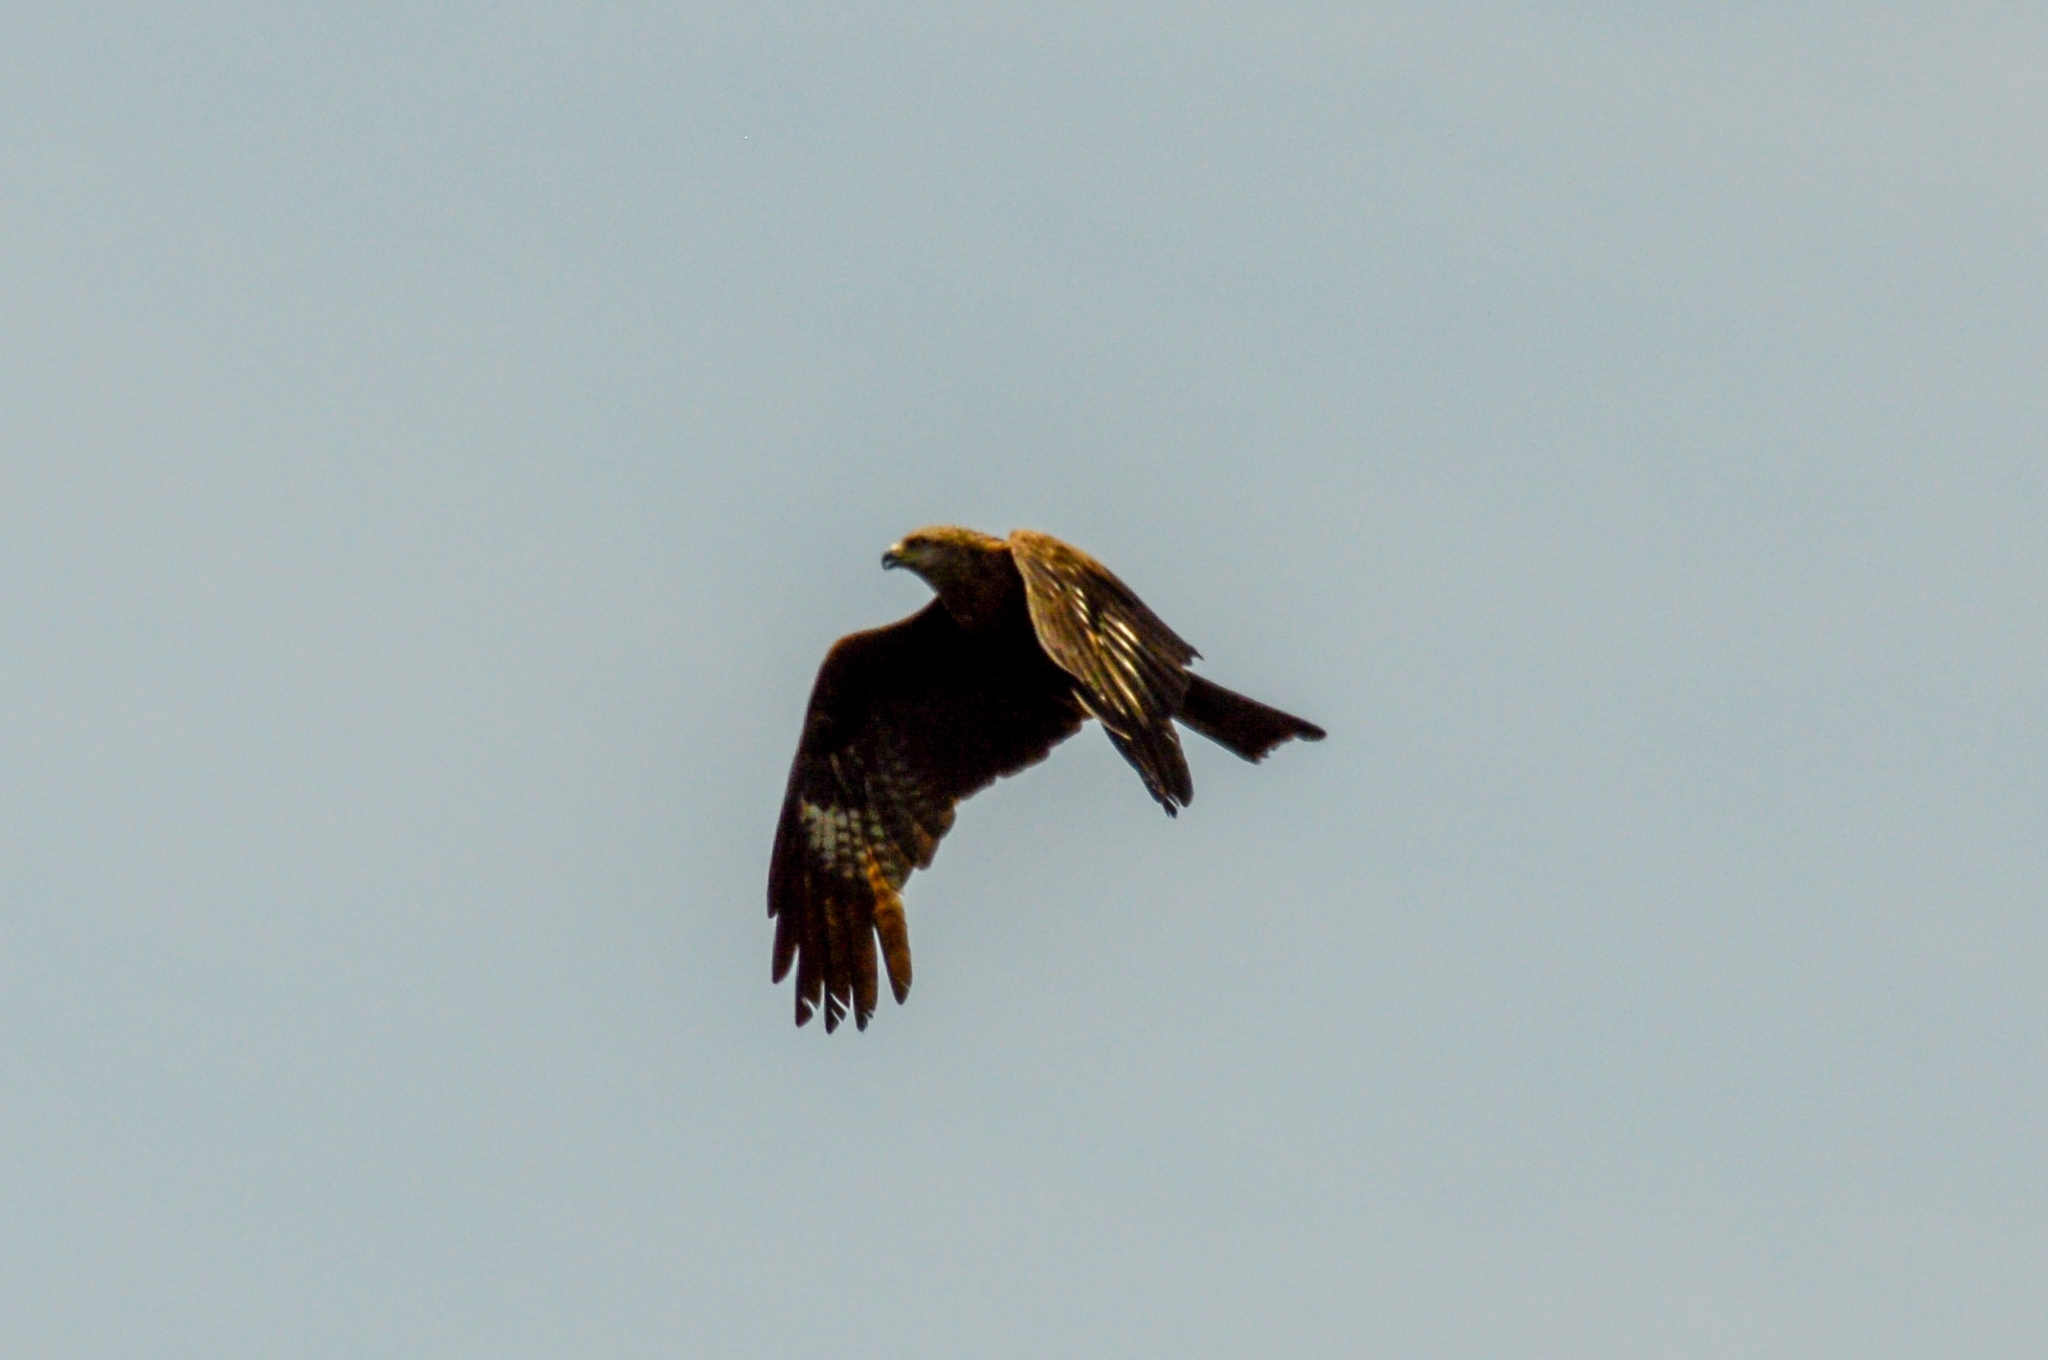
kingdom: Animalia
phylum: Chordata
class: Aves
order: Accipitriformes
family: Accipitridae
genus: Milvus
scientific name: Milvus migrans
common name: Black kite
